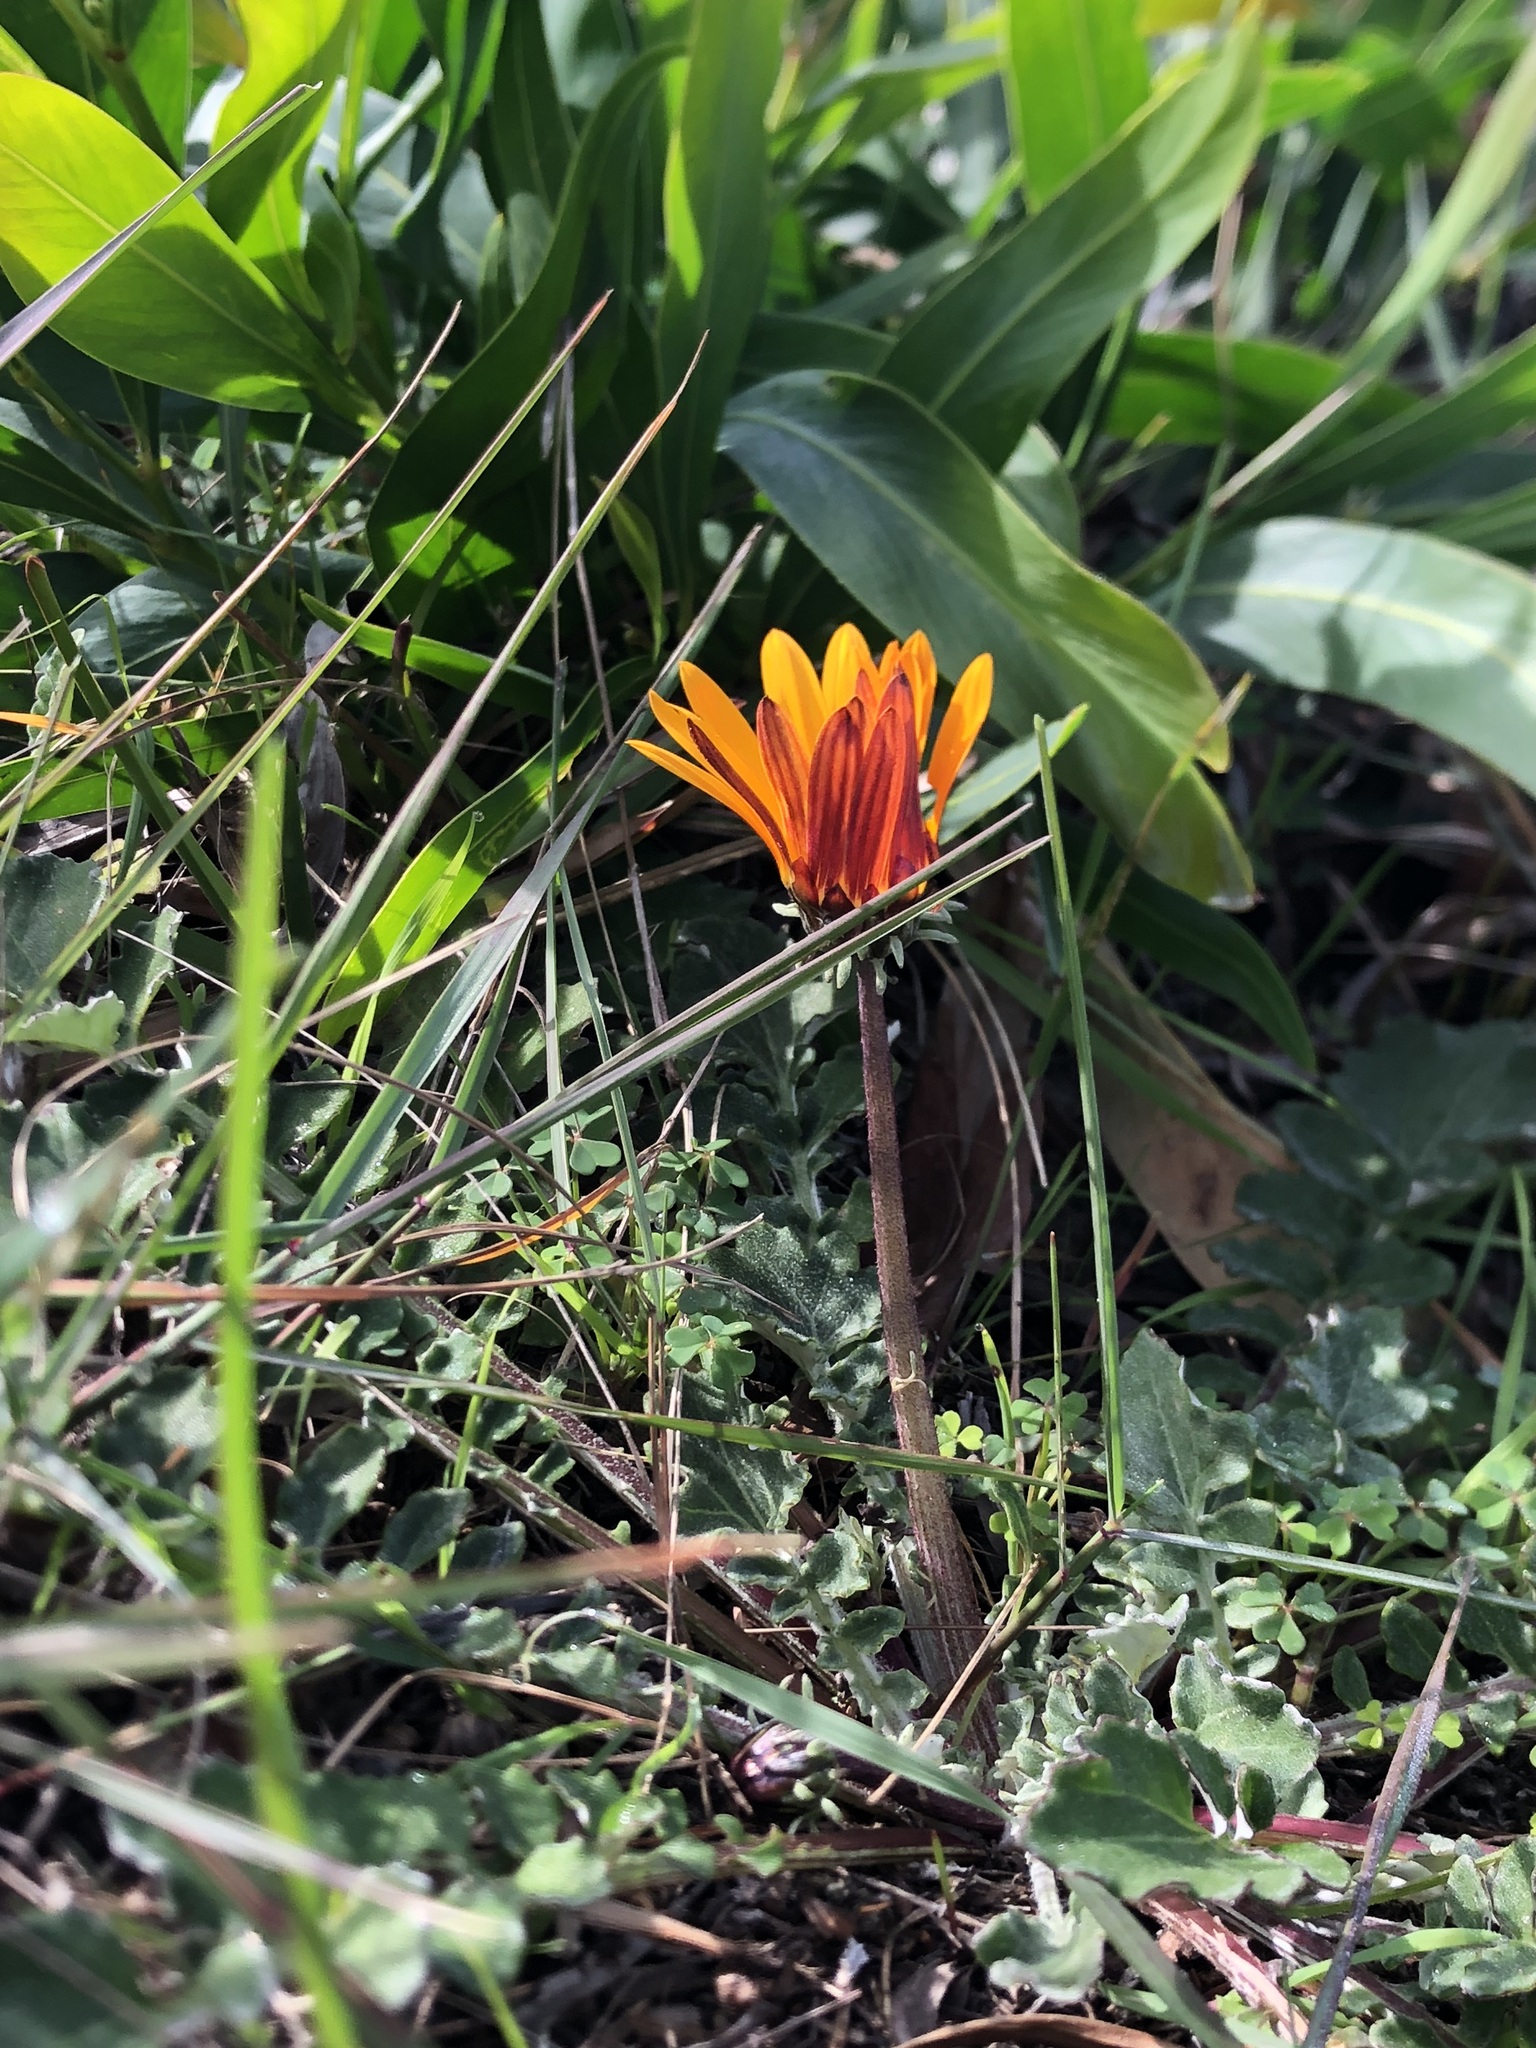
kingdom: Plantae
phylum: Tracheophyta
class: Magnoliopsida
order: Asterales
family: Asteraceae
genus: Arctotis
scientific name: Arctotis acaulis
